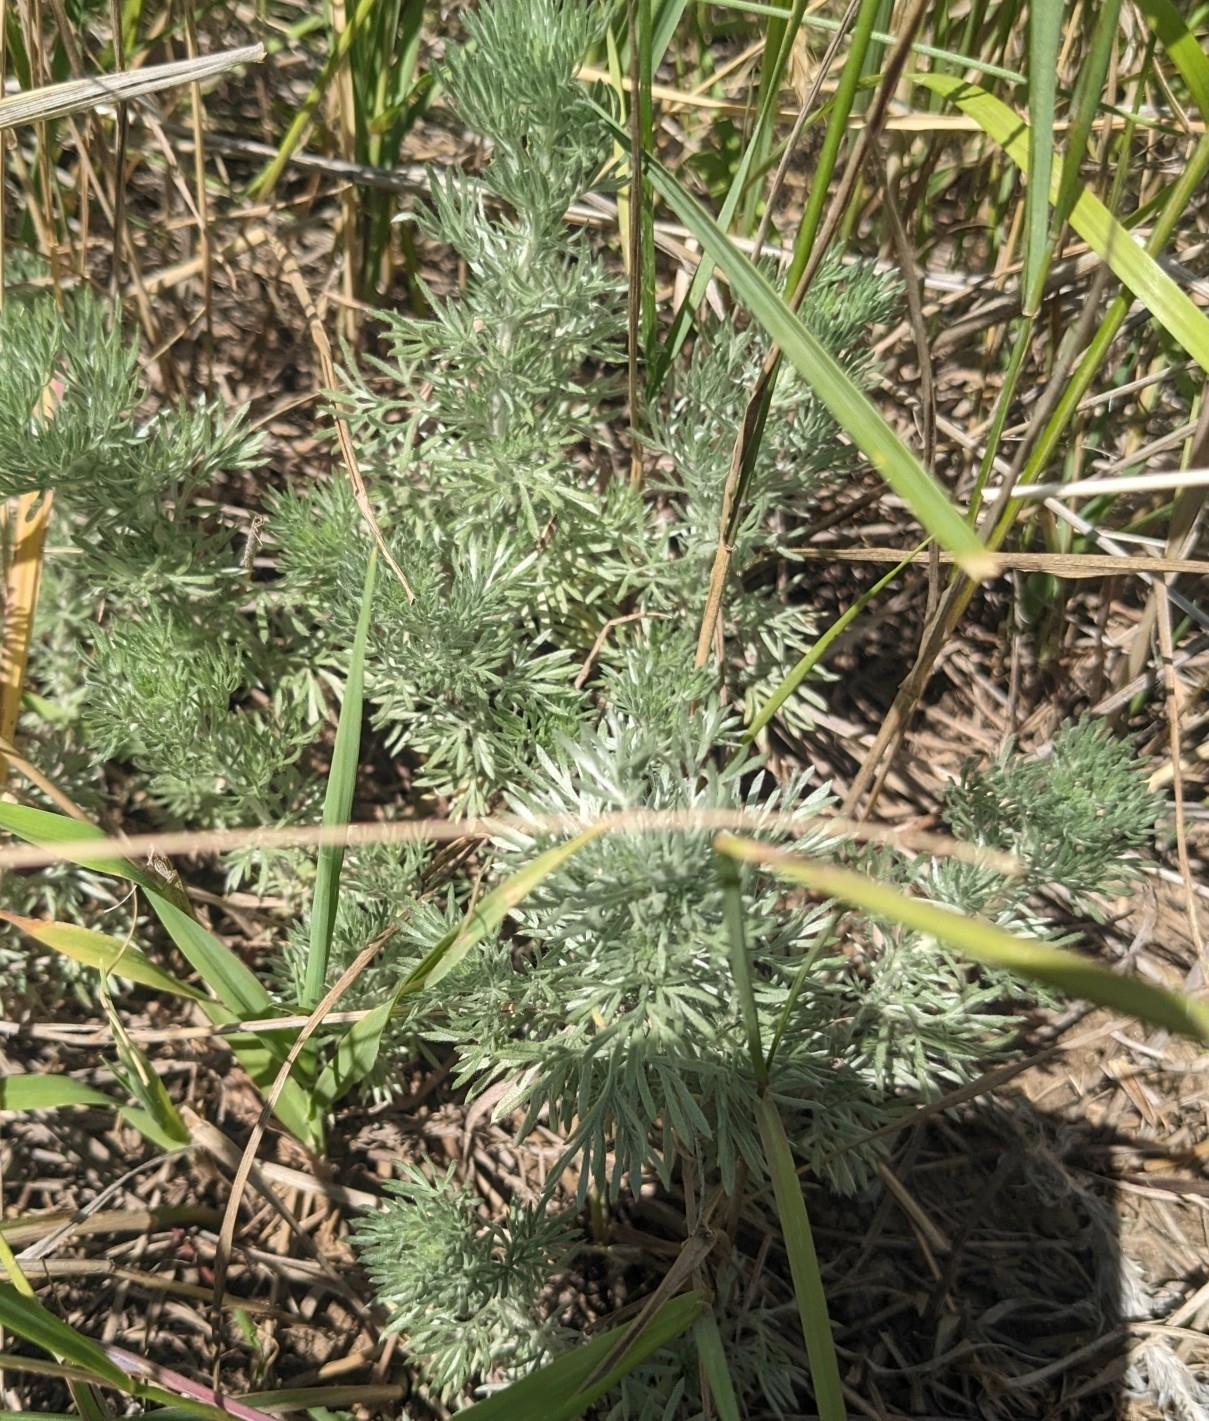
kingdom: Plantae
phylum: Tracheophyta
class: Magnoliopsida
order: Asterales
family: Asteraceae
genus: Artemisia
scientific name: Artemisia frigida
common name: Prairie sagewort
